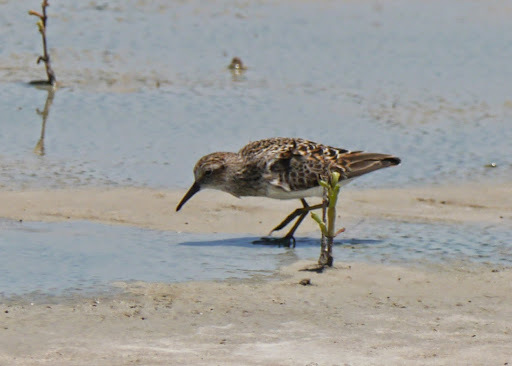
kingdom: Animalia
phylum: Chordata
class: Aves
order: Charadriiformes
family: Scolopacidae
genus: Calidris
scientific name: Calidris minutilla
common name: Least sandpiper
